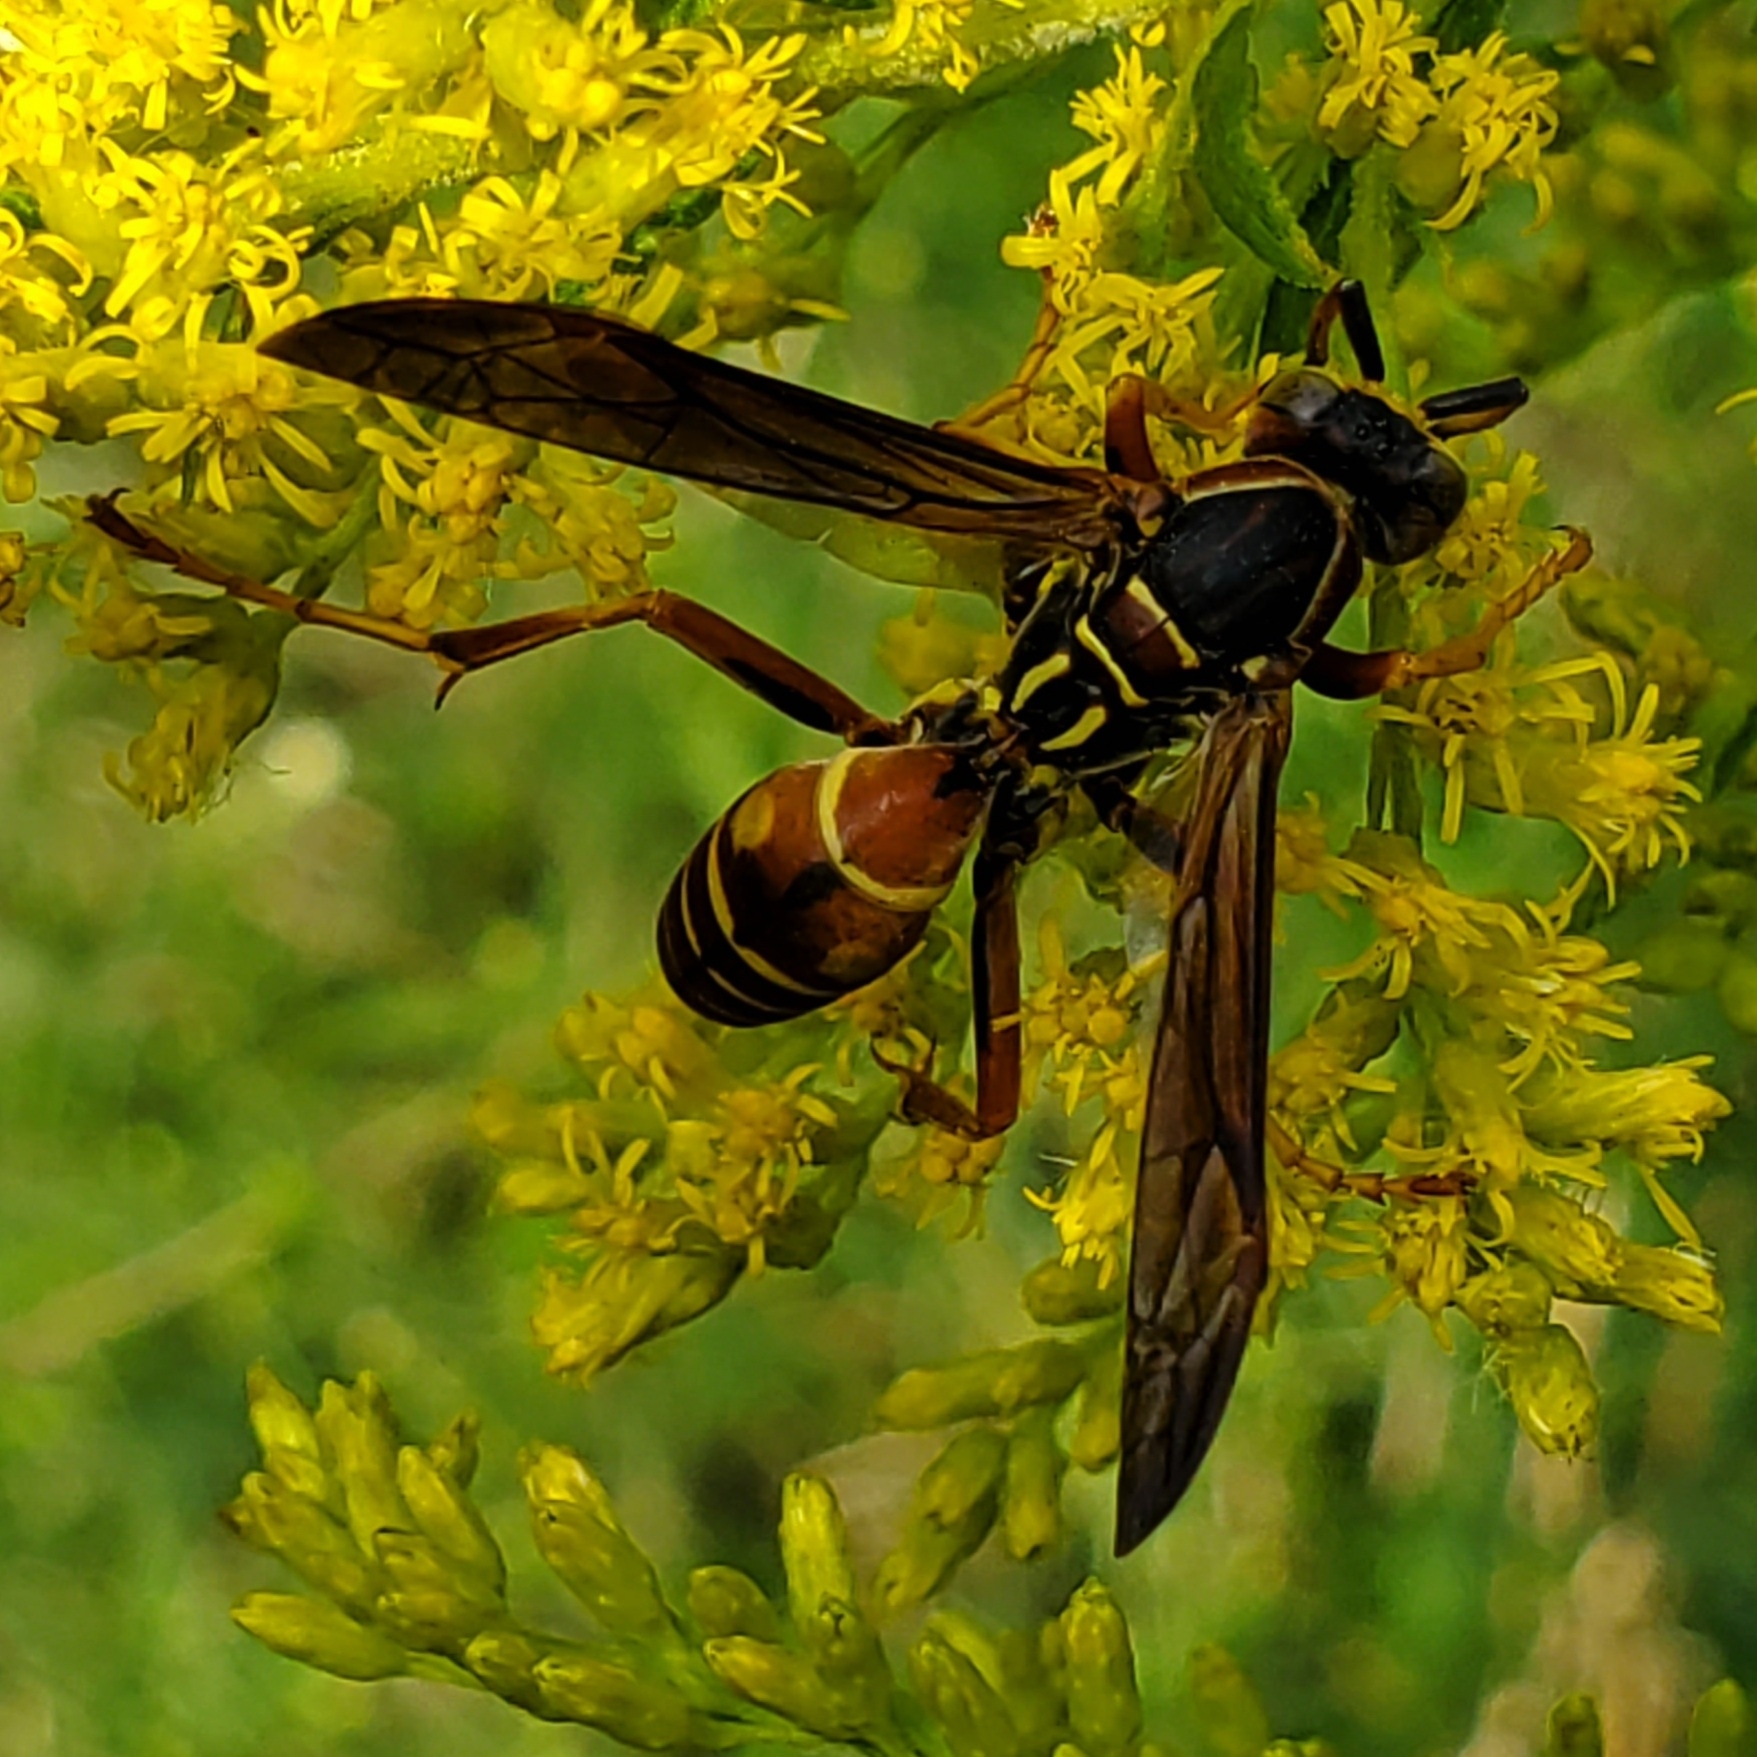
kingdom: Animalia
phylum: Arthropoda
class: Insecta
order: Hymenoptera
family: Eumenidae
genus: Polistes
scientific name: Polistes fuscatus
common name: Dark paper wasp
